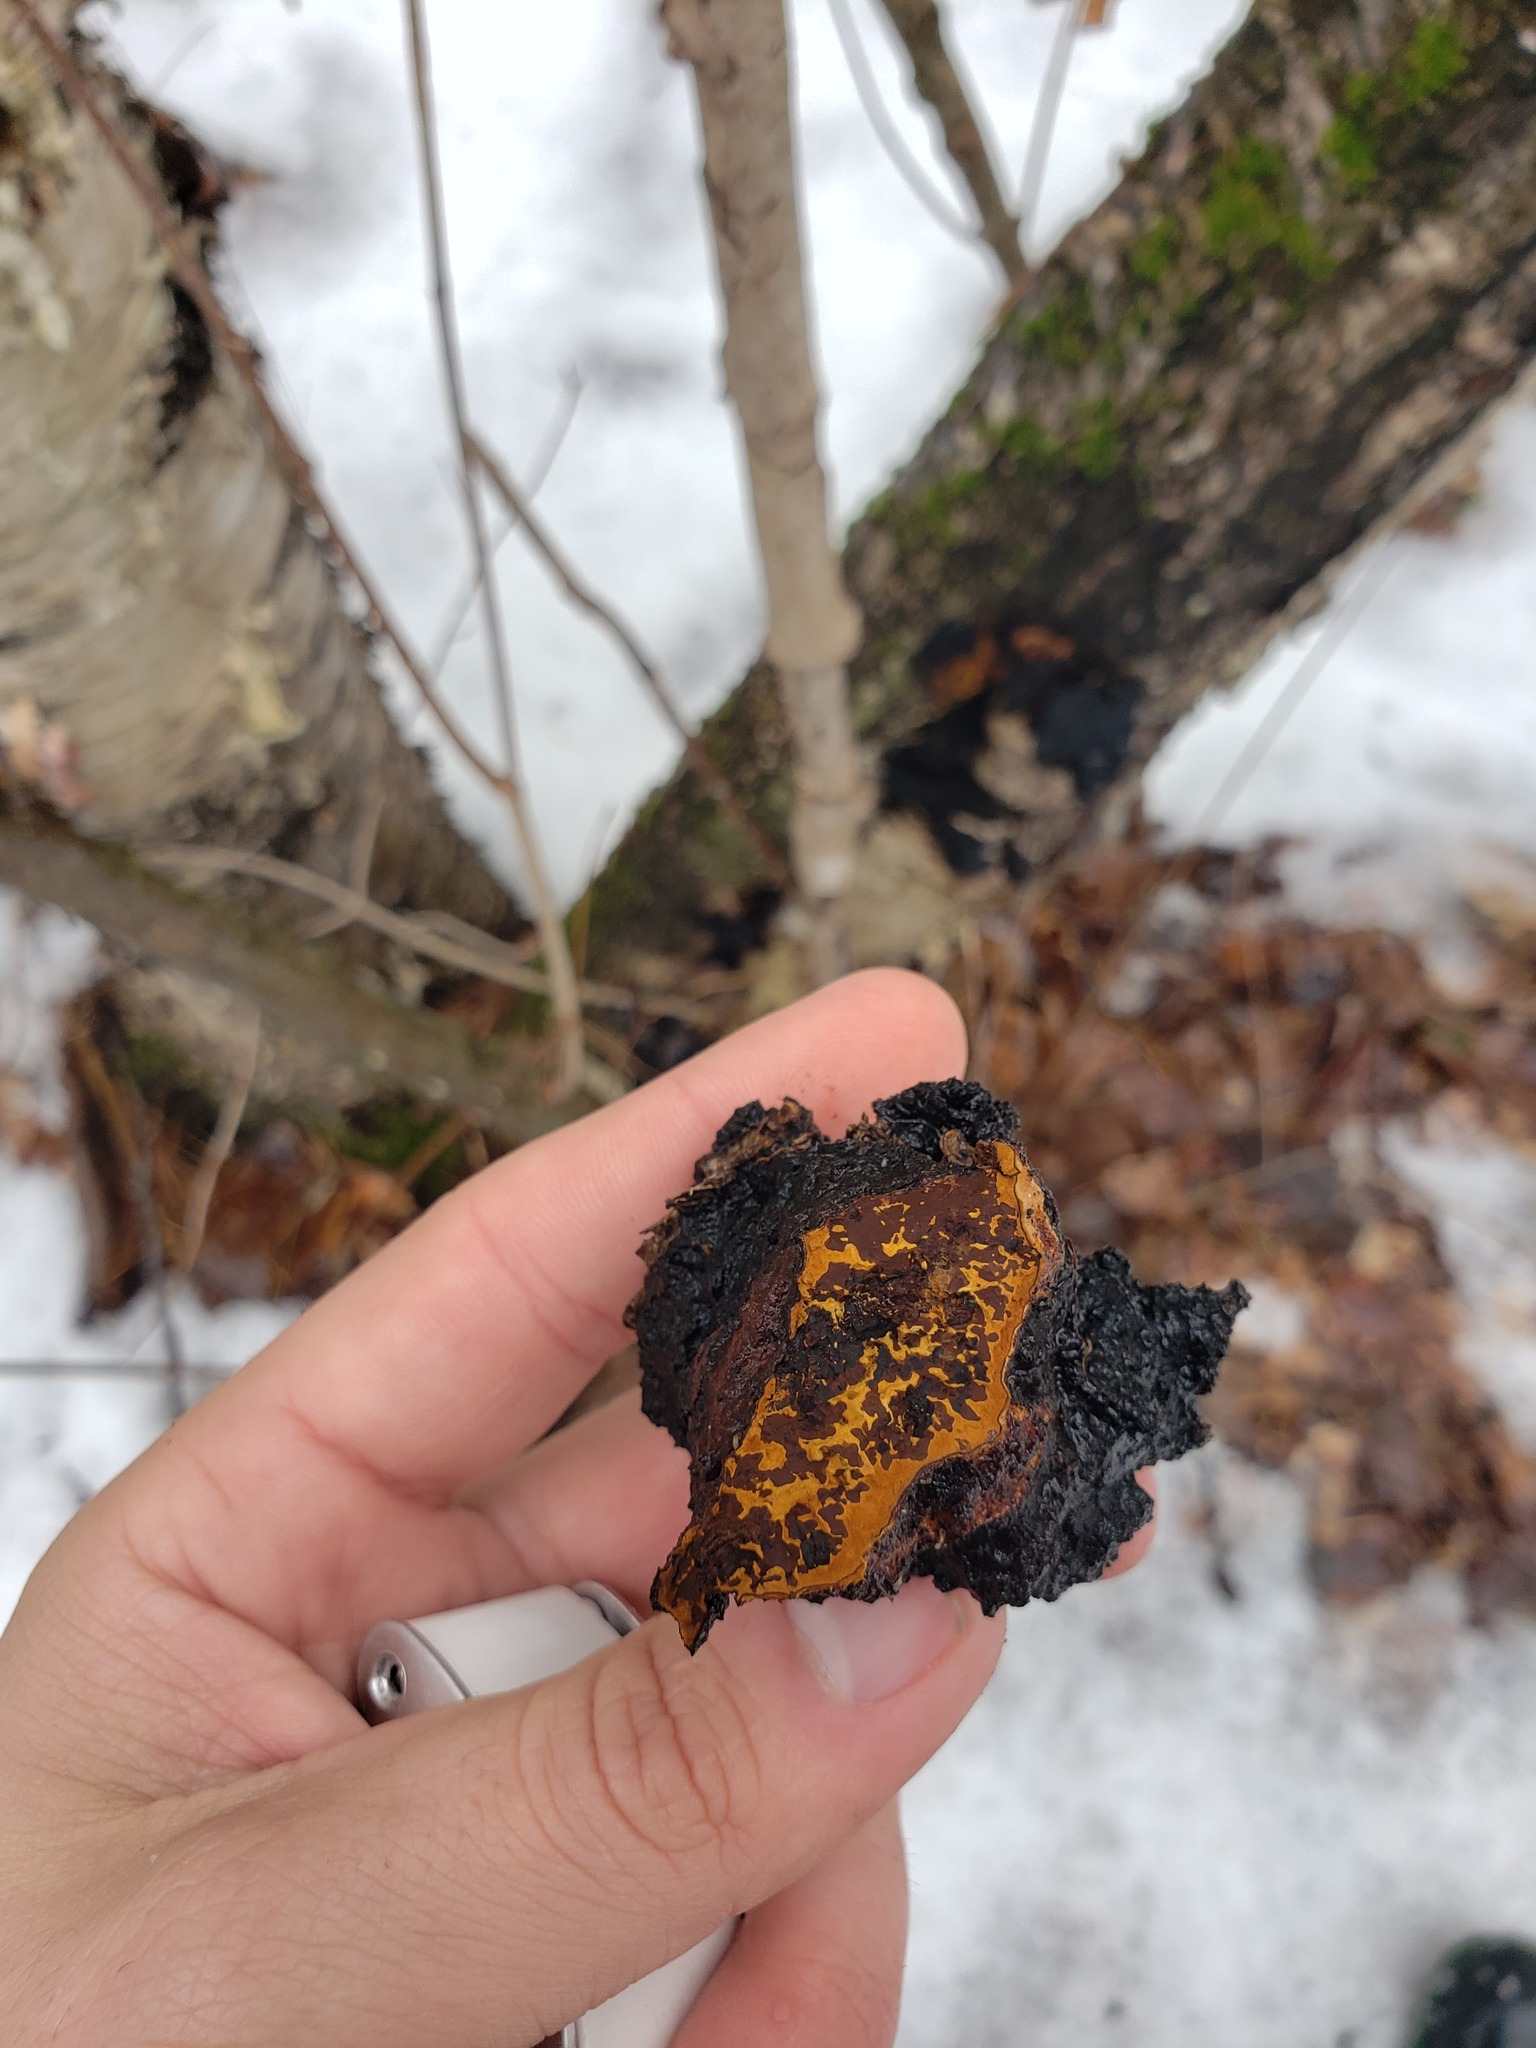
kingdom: Fungi
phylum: Basidiomycota
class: Agaricomycetes
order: Hymenochaetales
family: Hymenochaetaceae
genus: Inonotus
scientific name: Inonotus obliquus
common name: Chaga
